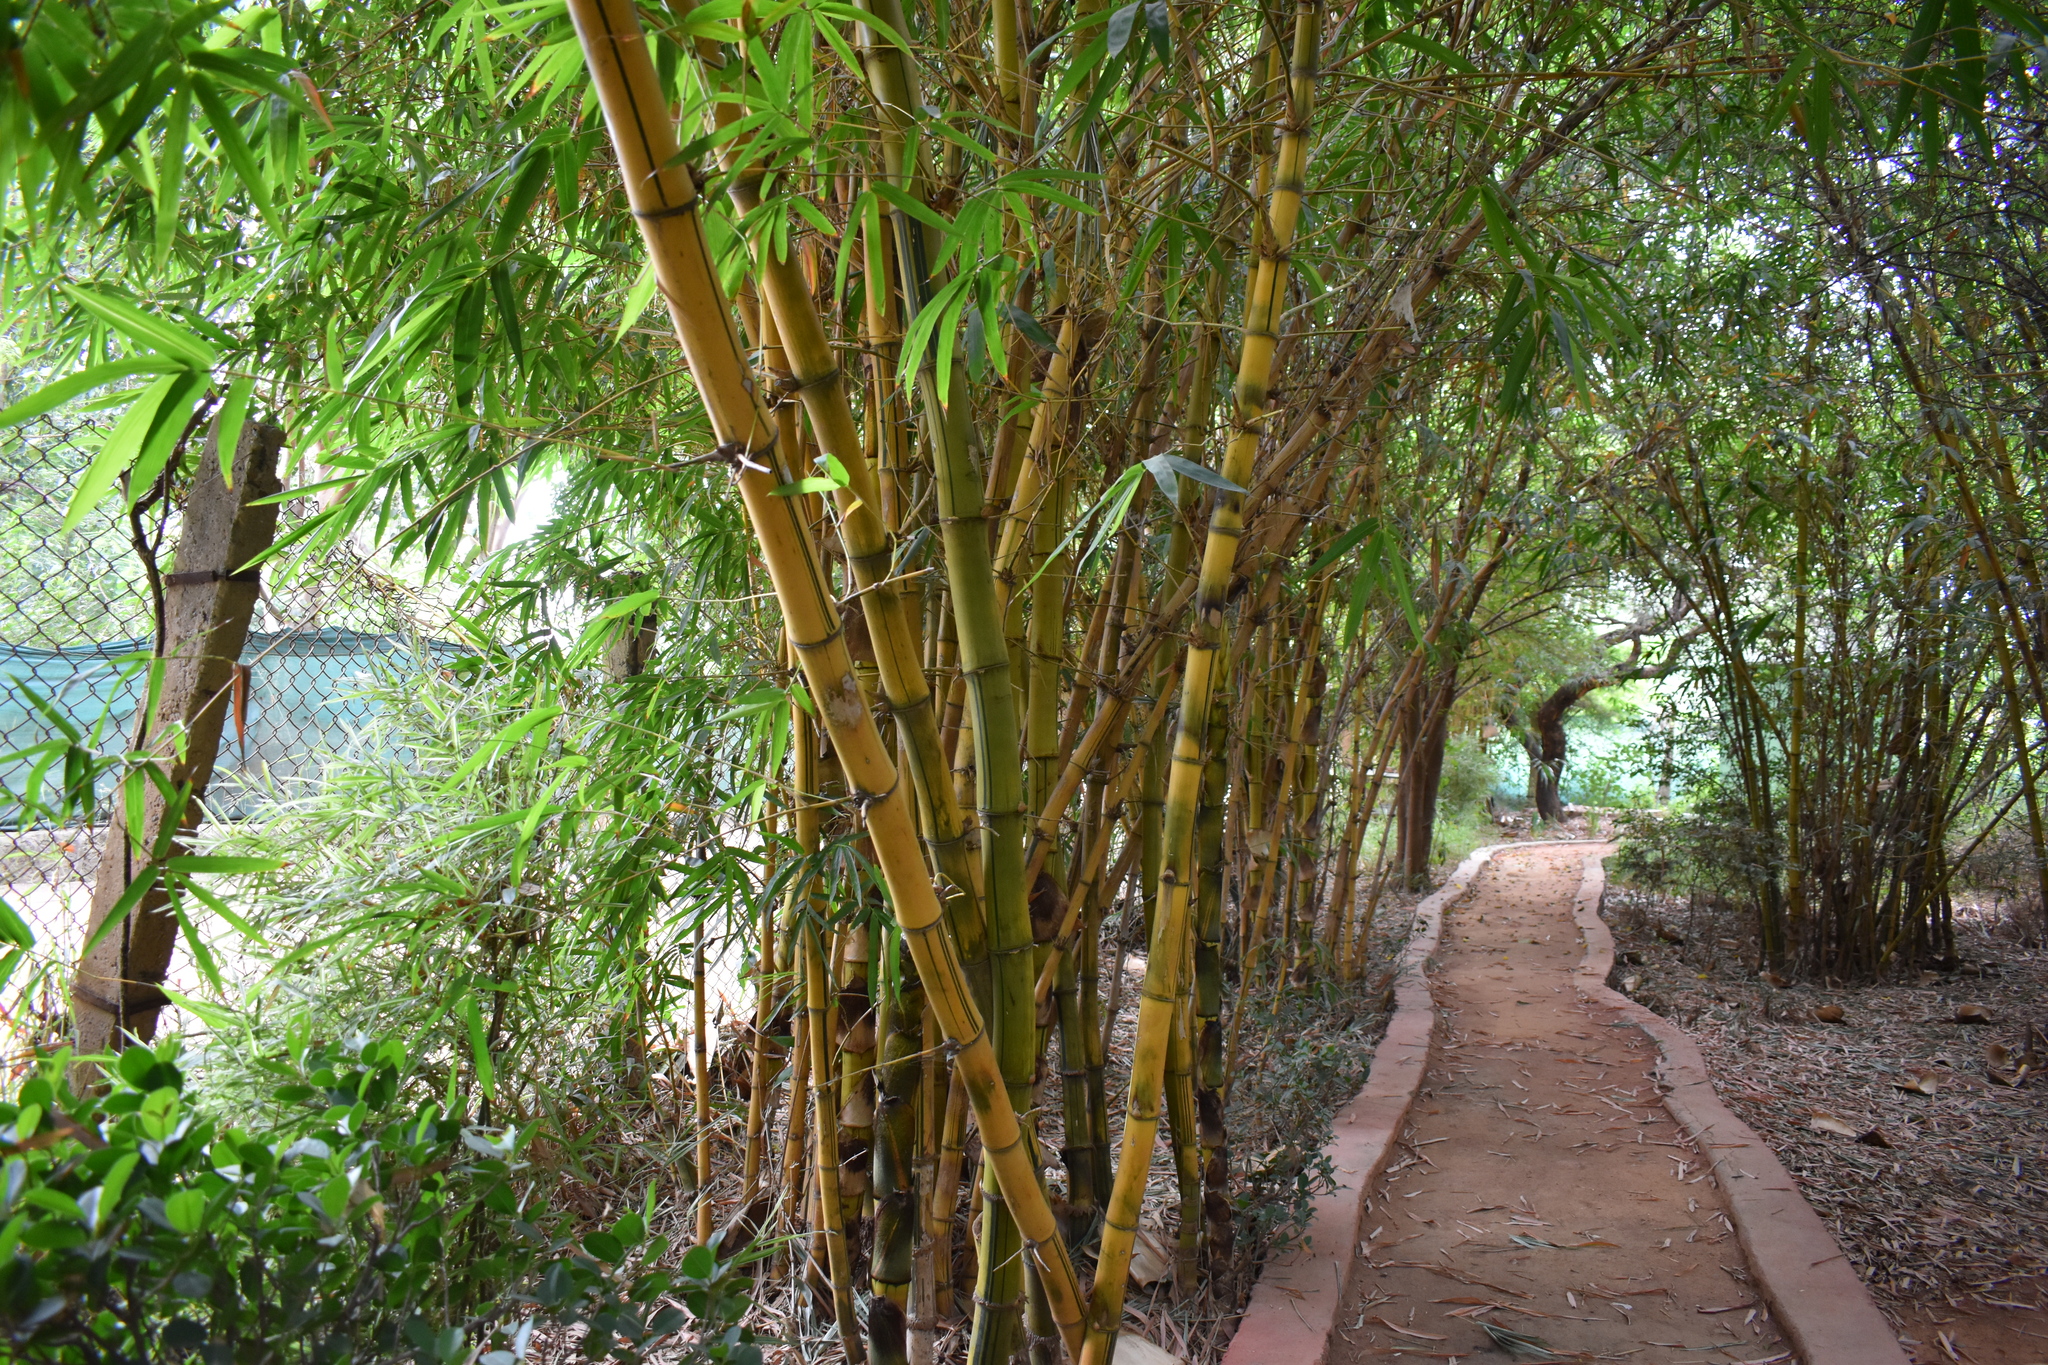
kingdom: Plantae
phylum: Tracheophyta
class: Liliopsida
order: Poales
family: Poaceae
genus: Bambusa
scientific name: Bambusa vulgaris
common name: Common bamboo
